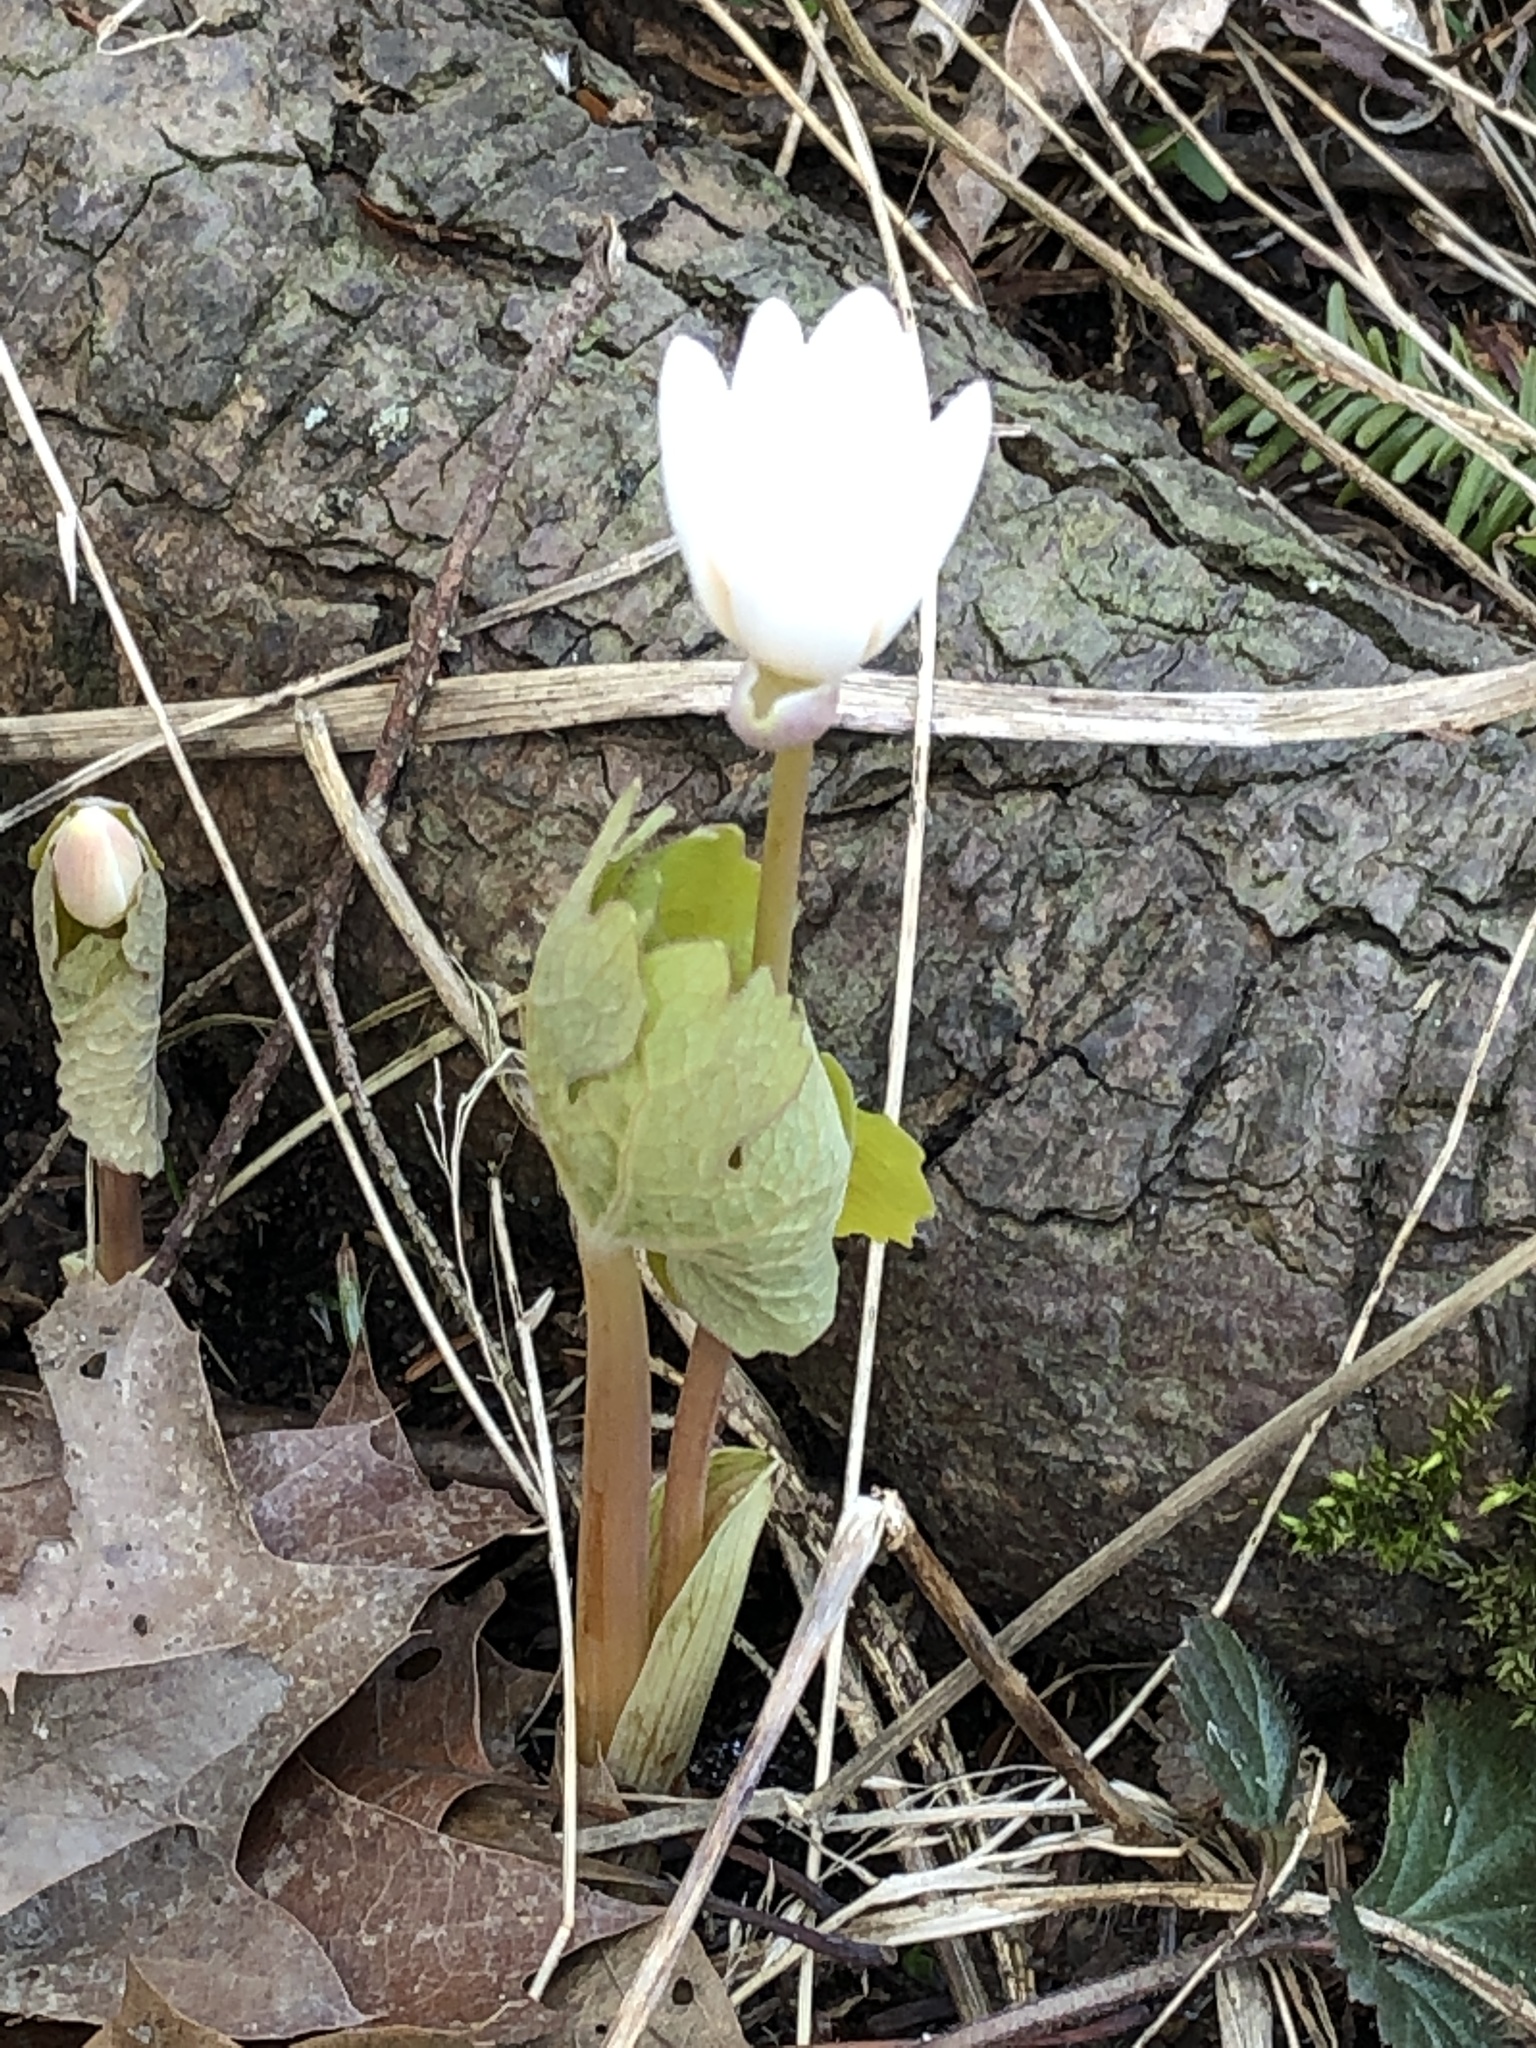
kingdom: Plantae
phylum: Tracheophyta
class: Magnoliopsida
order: Ranunculales
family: Papaveraceae
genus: Sanguinaria
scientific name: Sanguinaria canadensis
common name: Bloodroot
